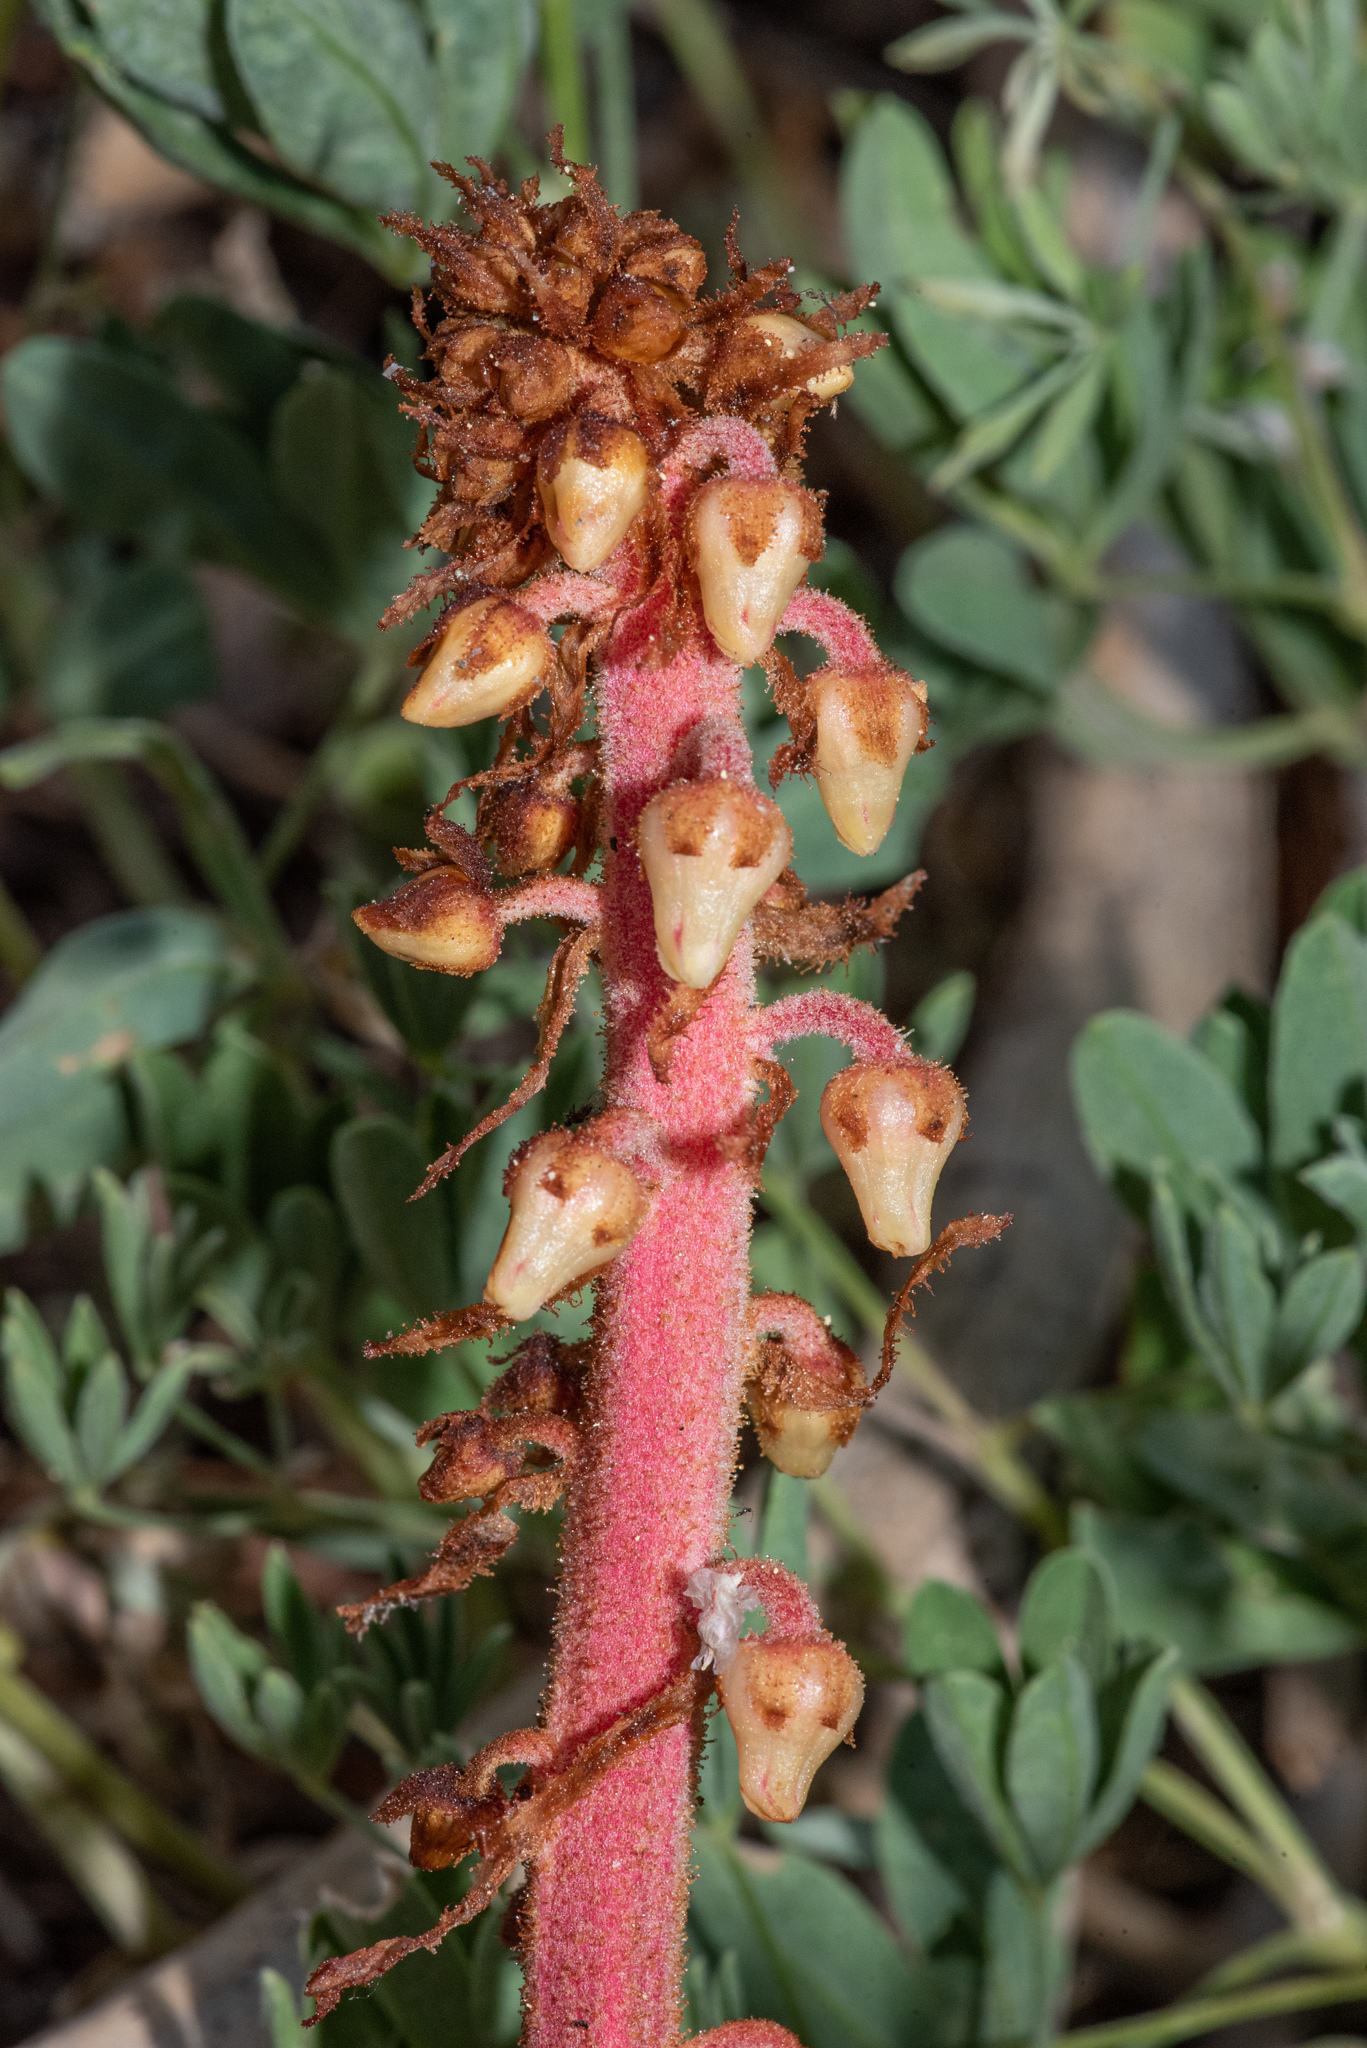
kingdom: Plantae
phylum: Tracheophyta
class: Magnoliopsida
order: Ericales
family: Ericaceae
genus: Pterospora
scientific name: Pterospora andromedea
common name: Giant bird's-nest
